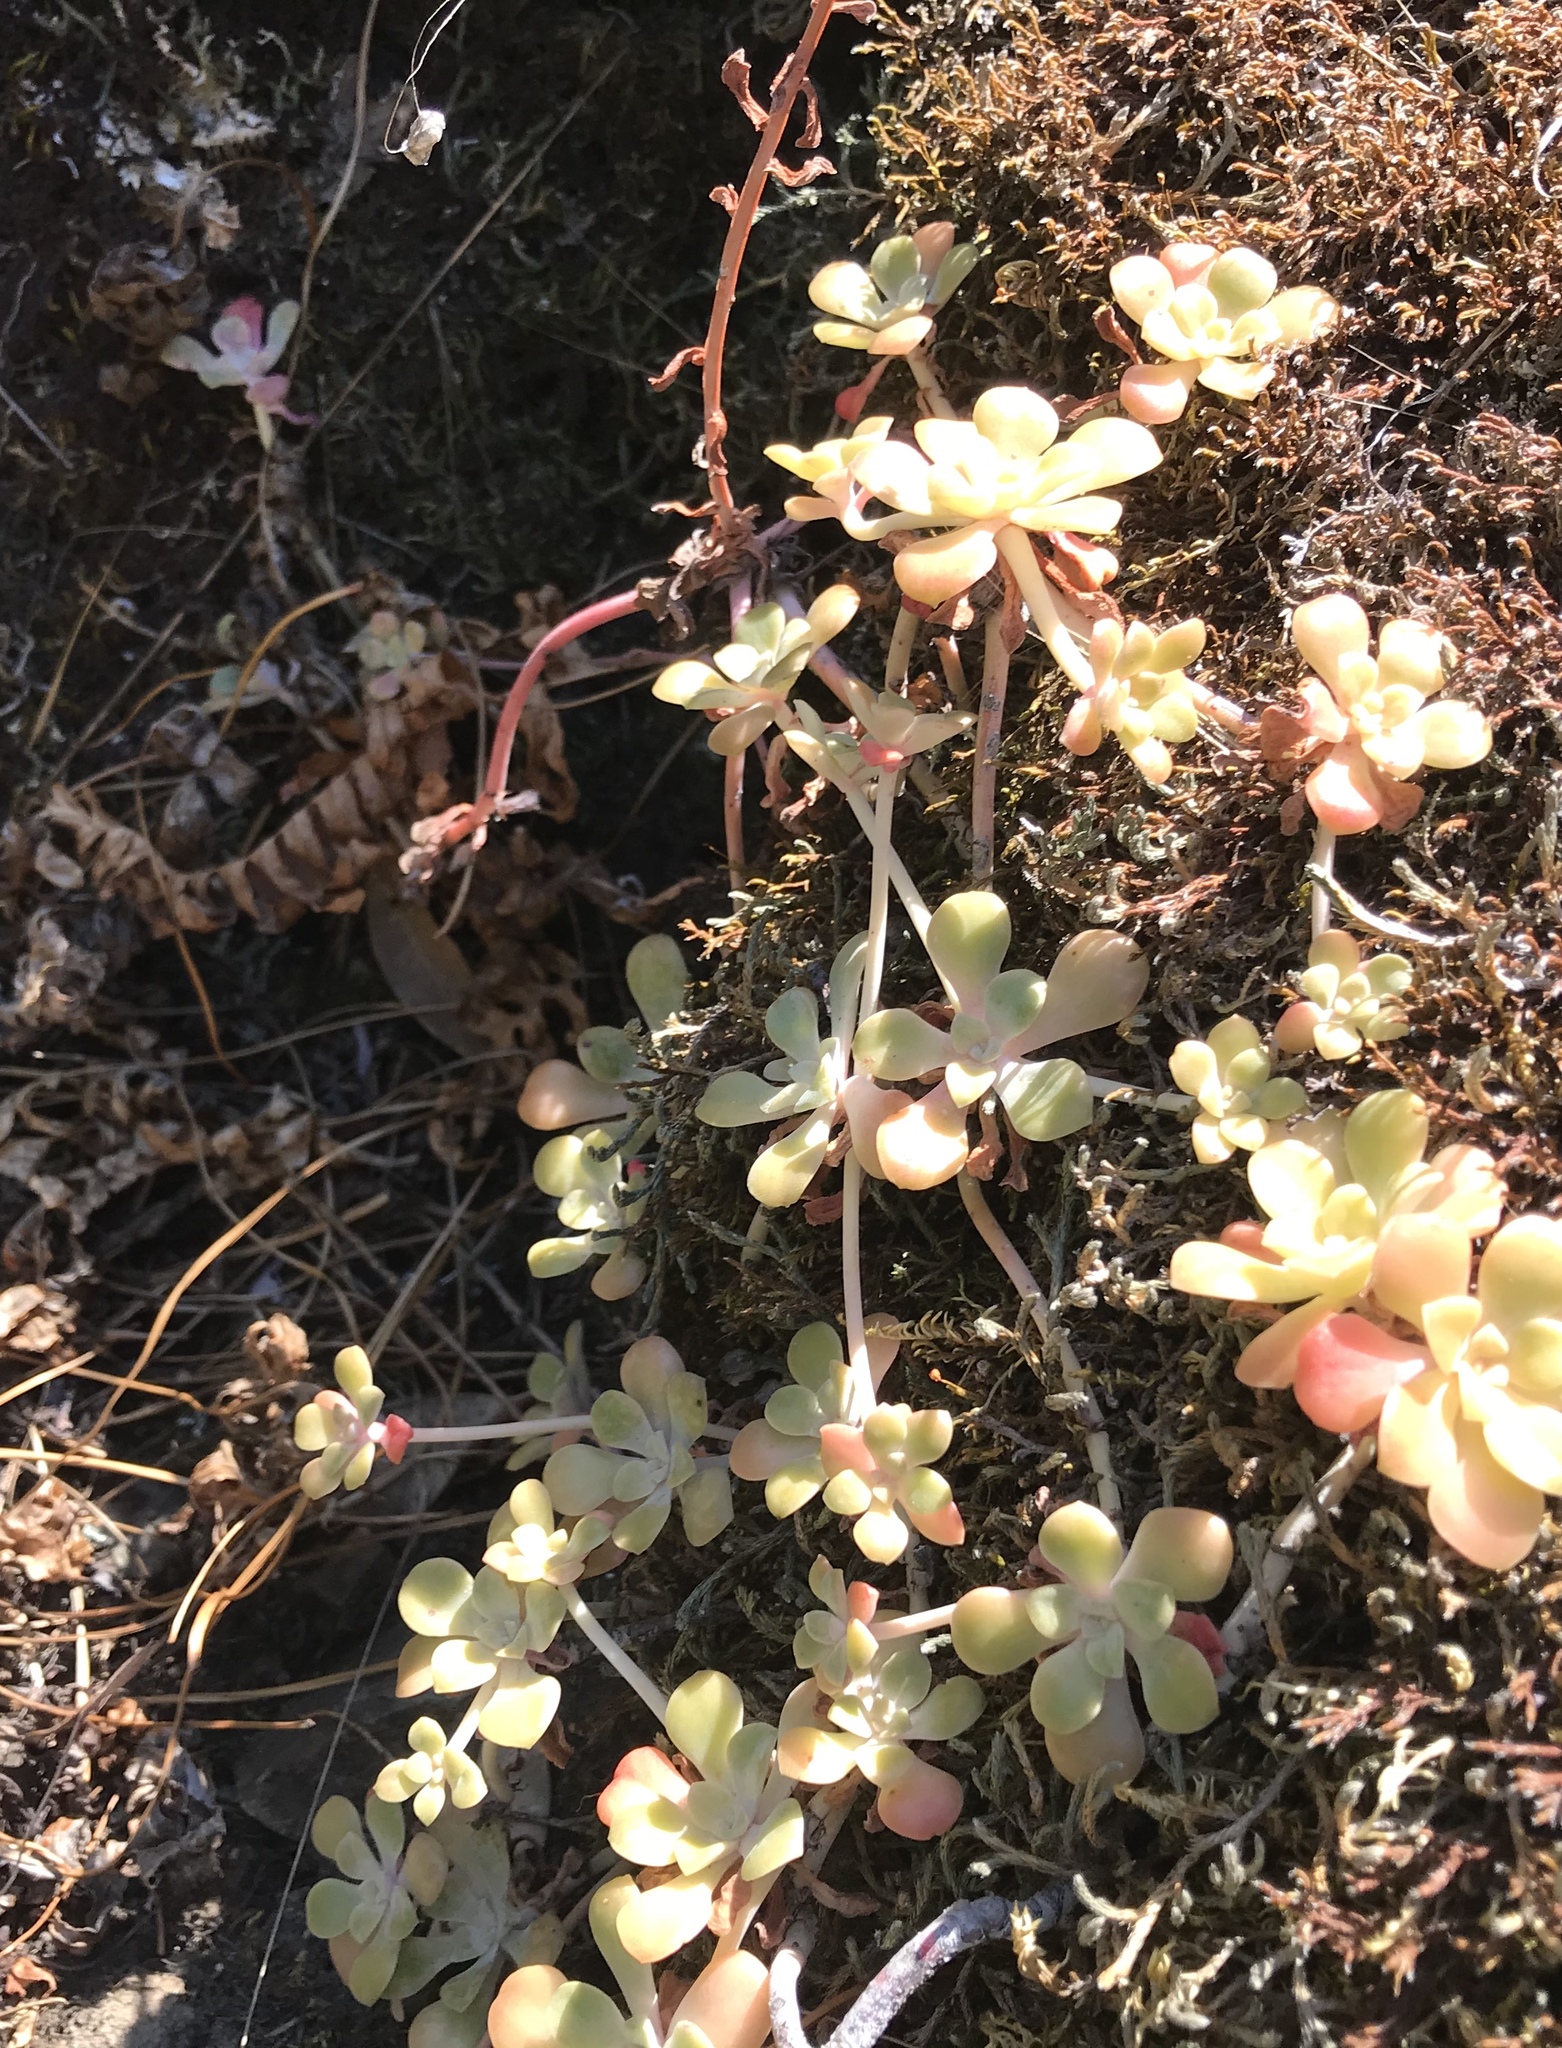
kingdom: Plantae
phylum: Tracheophyta
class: Magnoliopsida
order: Saxifragales
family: Crassulaceae
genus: Sedum
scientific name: Sedum spathulifolium
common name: Colorado stonecrop
